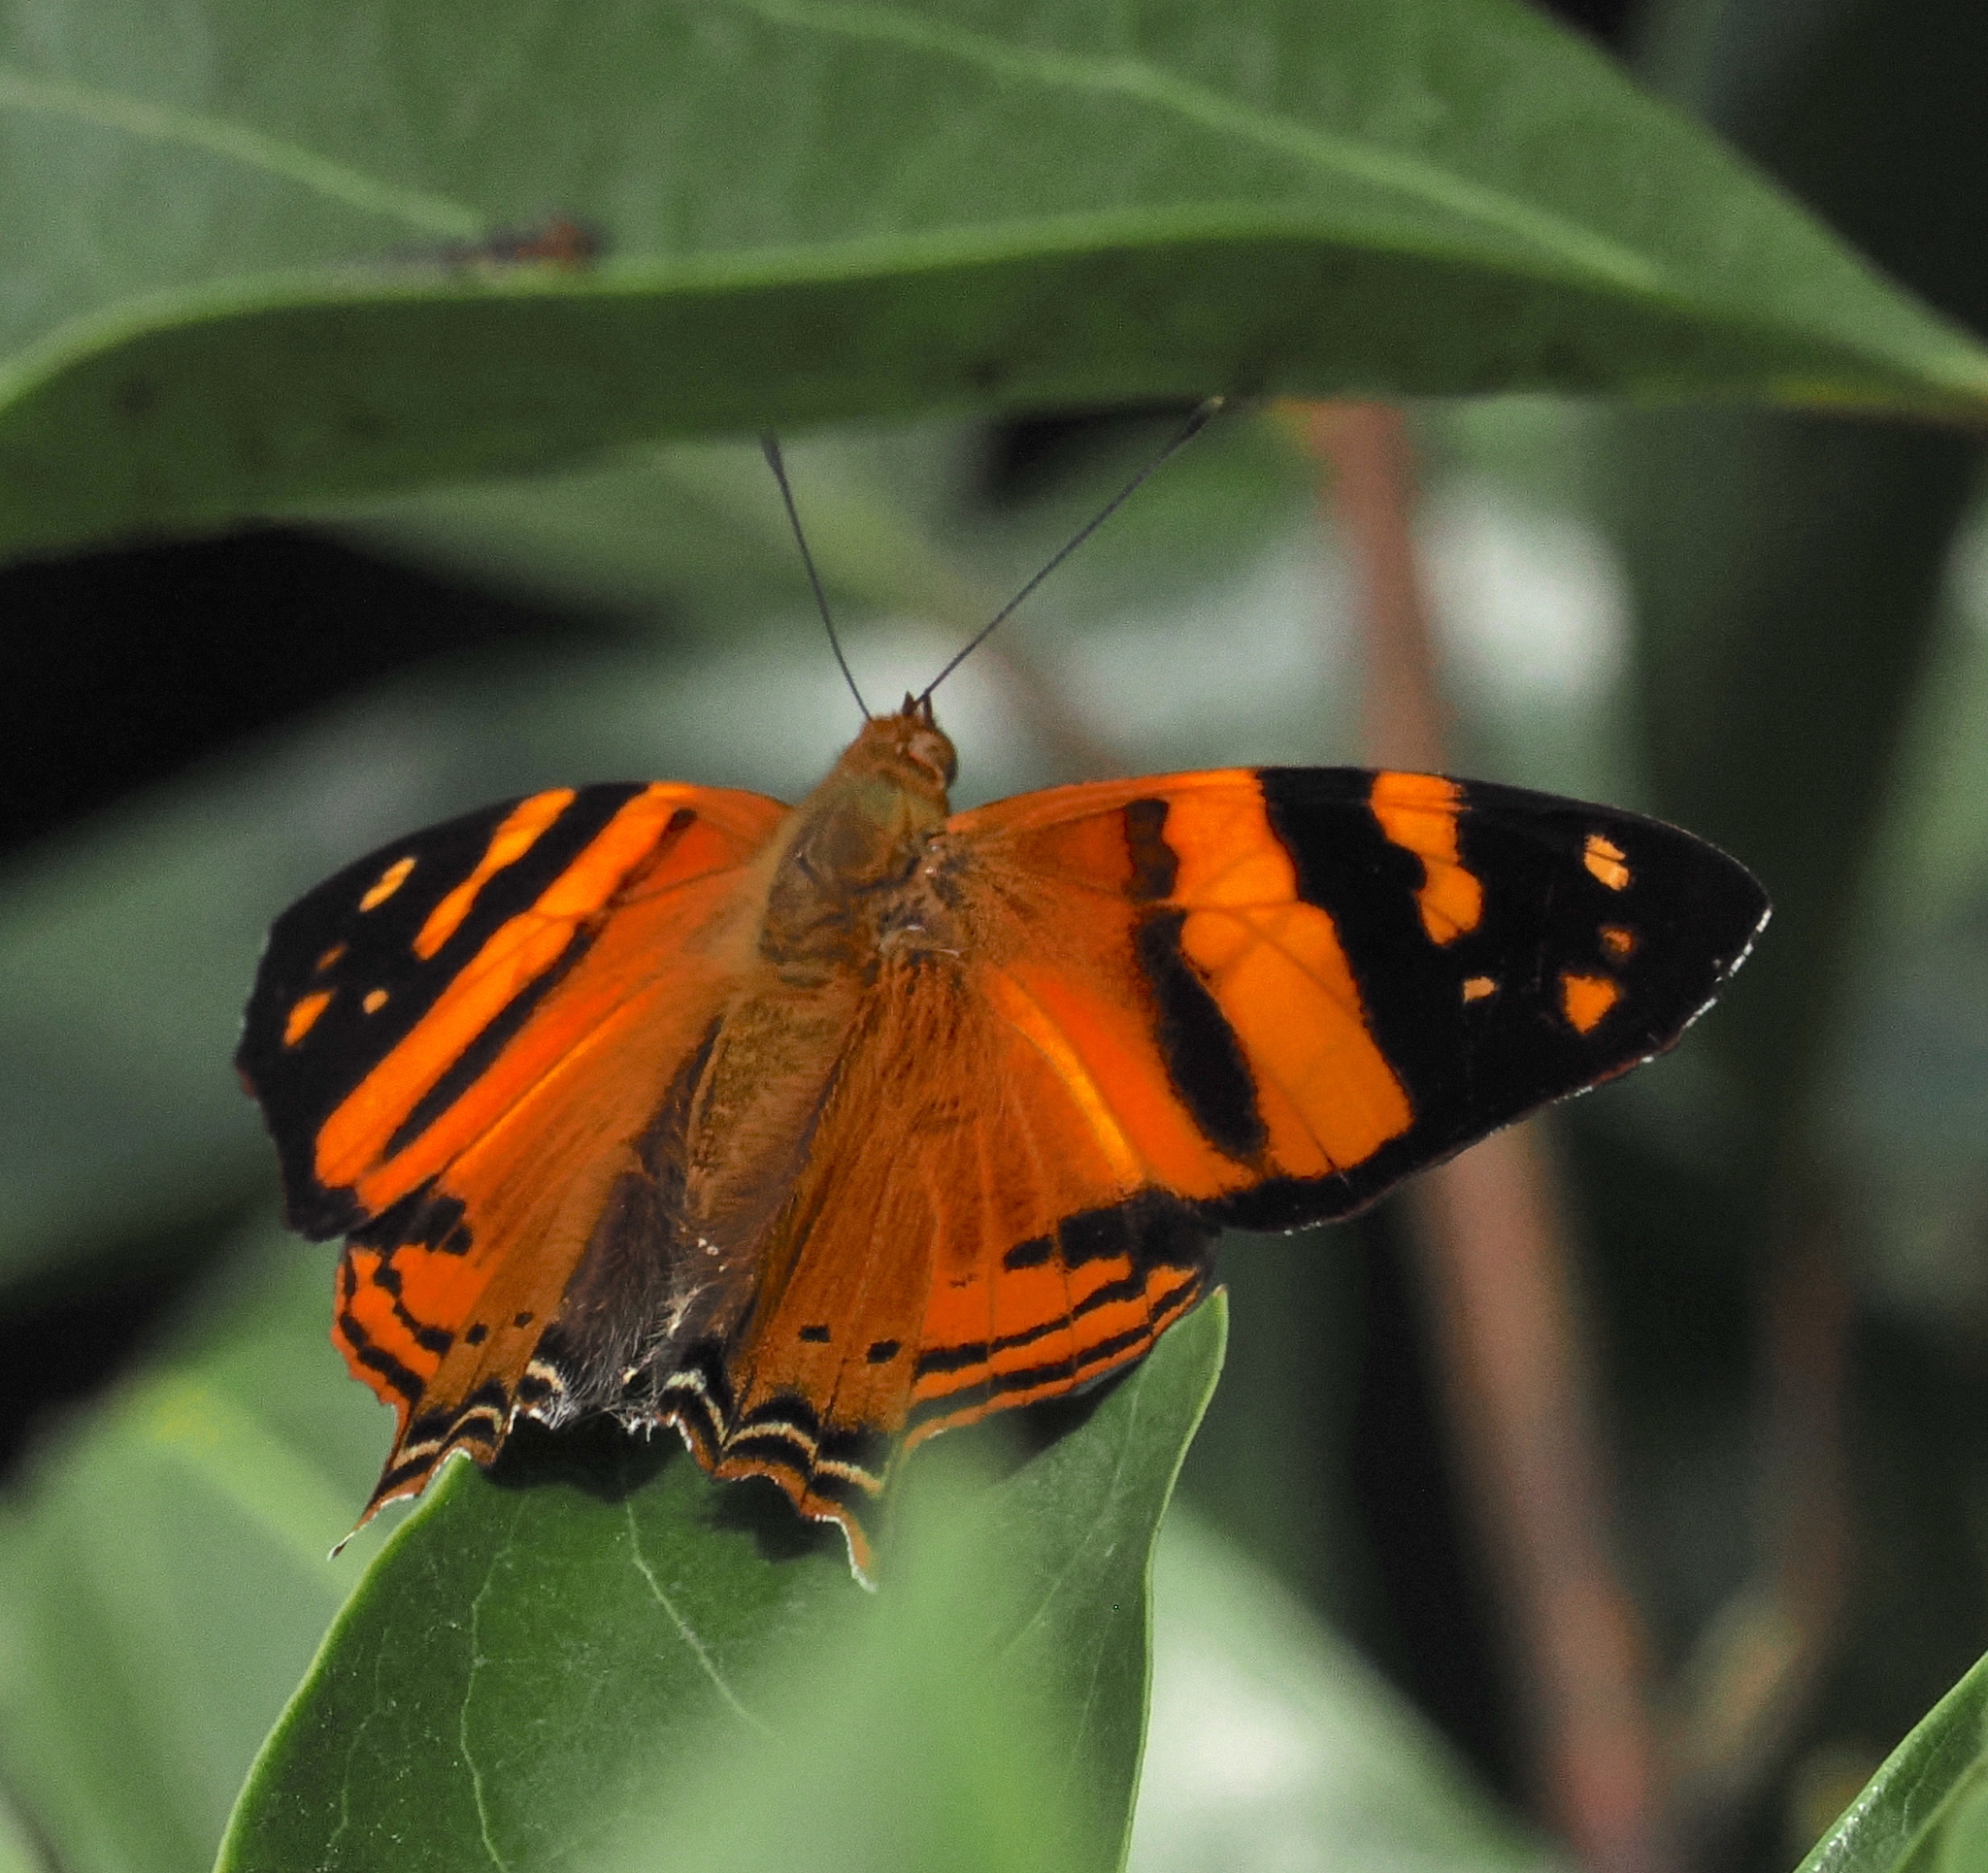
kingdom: Animalia
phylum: Arthropoda
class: Insecta
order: Lepidoptera
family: Nymphalidae
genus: Hypanartia
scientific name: Hypanartia lethe
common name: Orange mapwing
